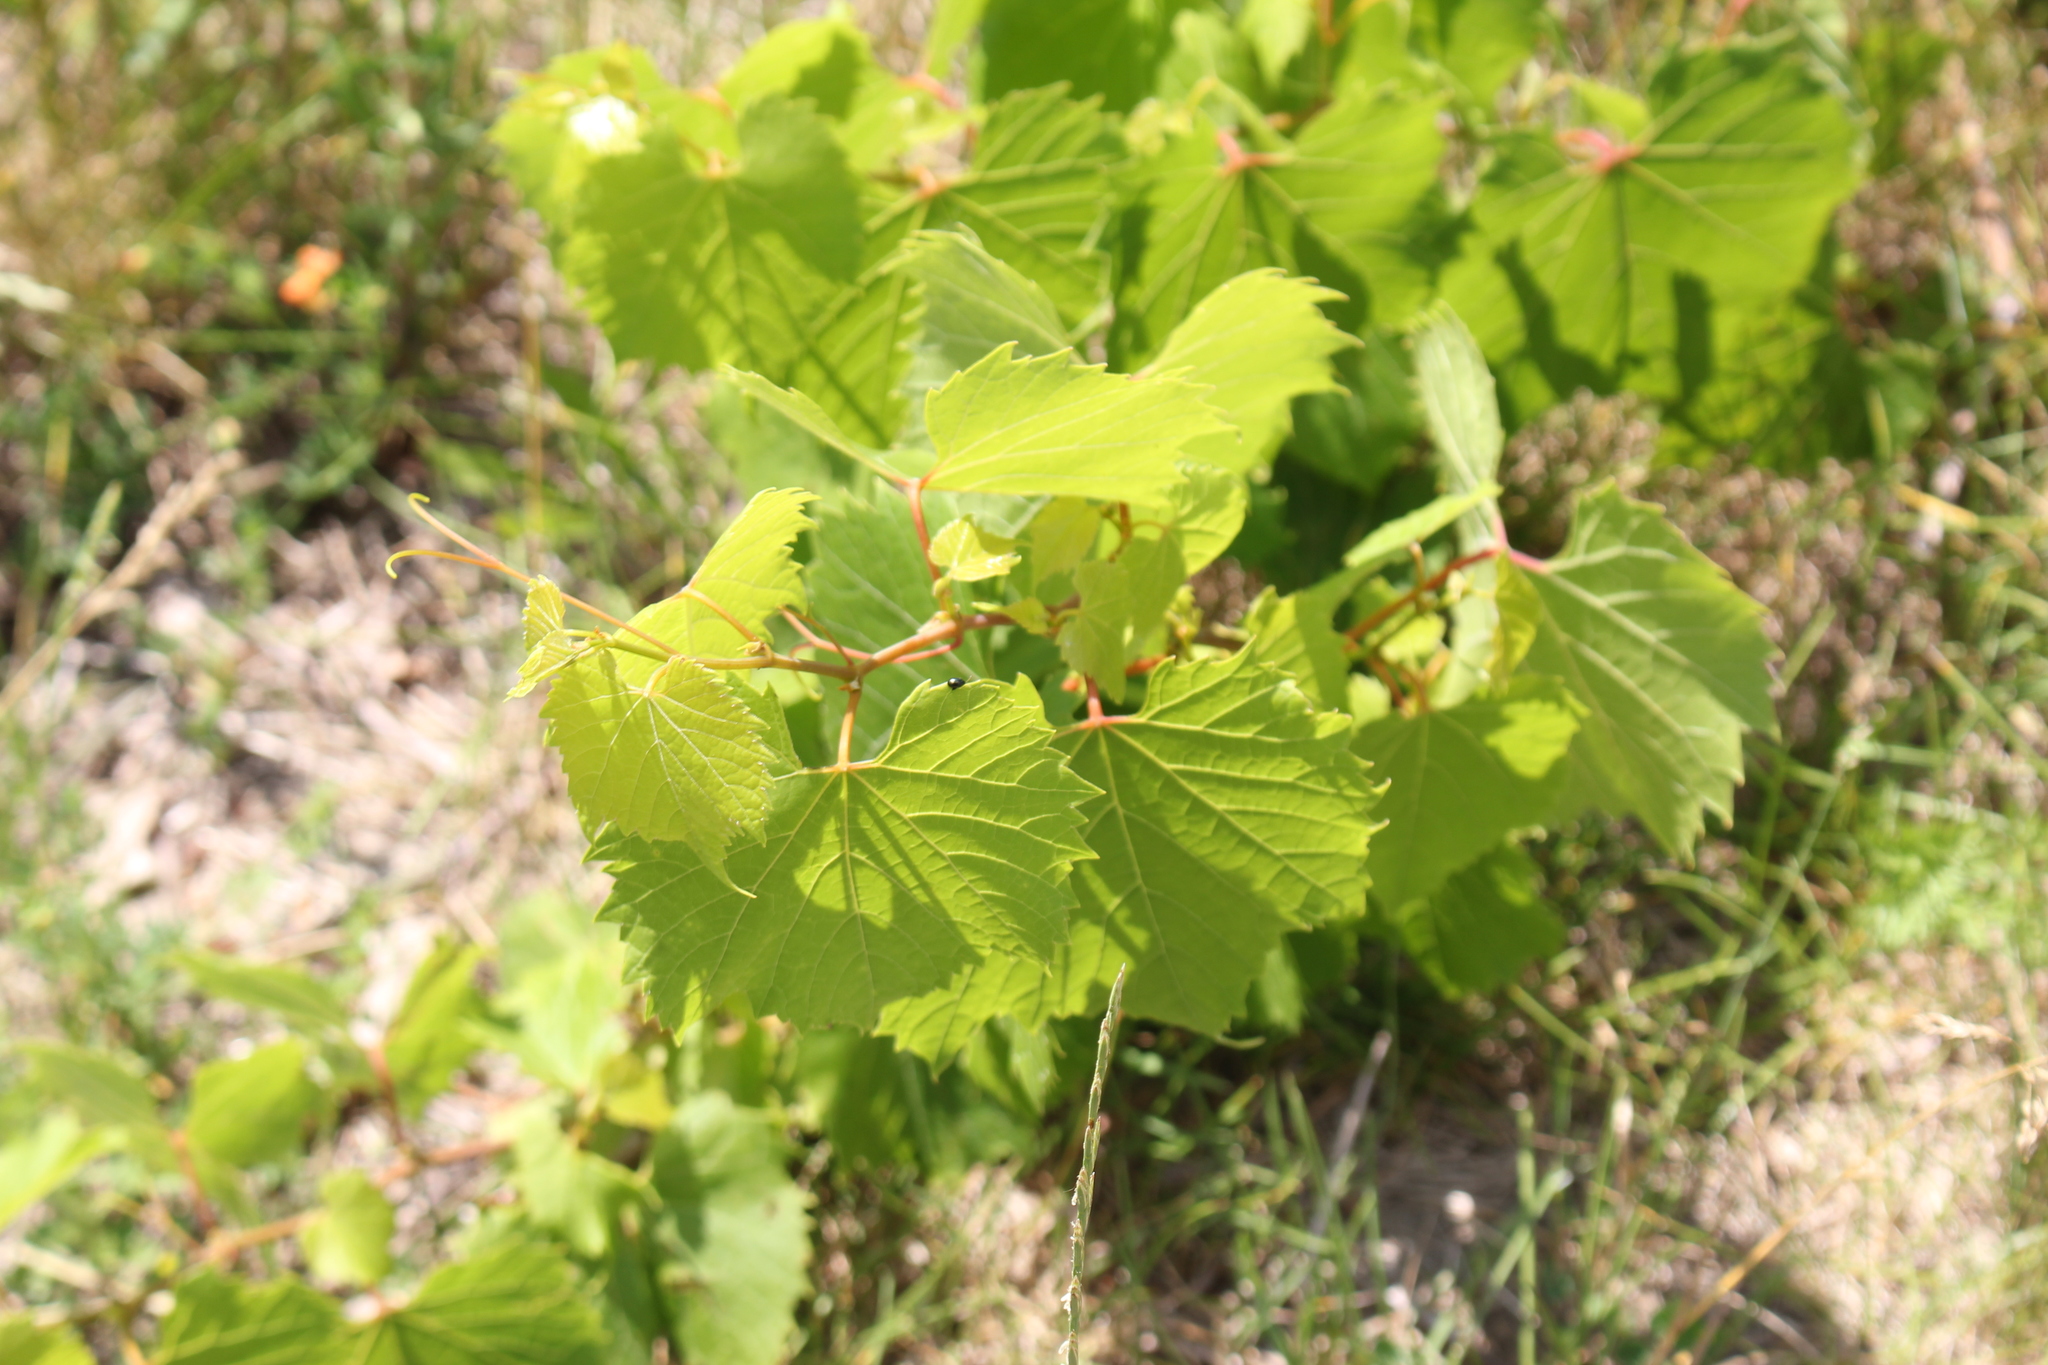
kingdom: Plantae
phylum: Tracheophyta
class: Magnoliopsida
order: Vitales
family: Vitaceae
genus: Vitis
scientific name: Vitis riparia
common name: Frost grape
